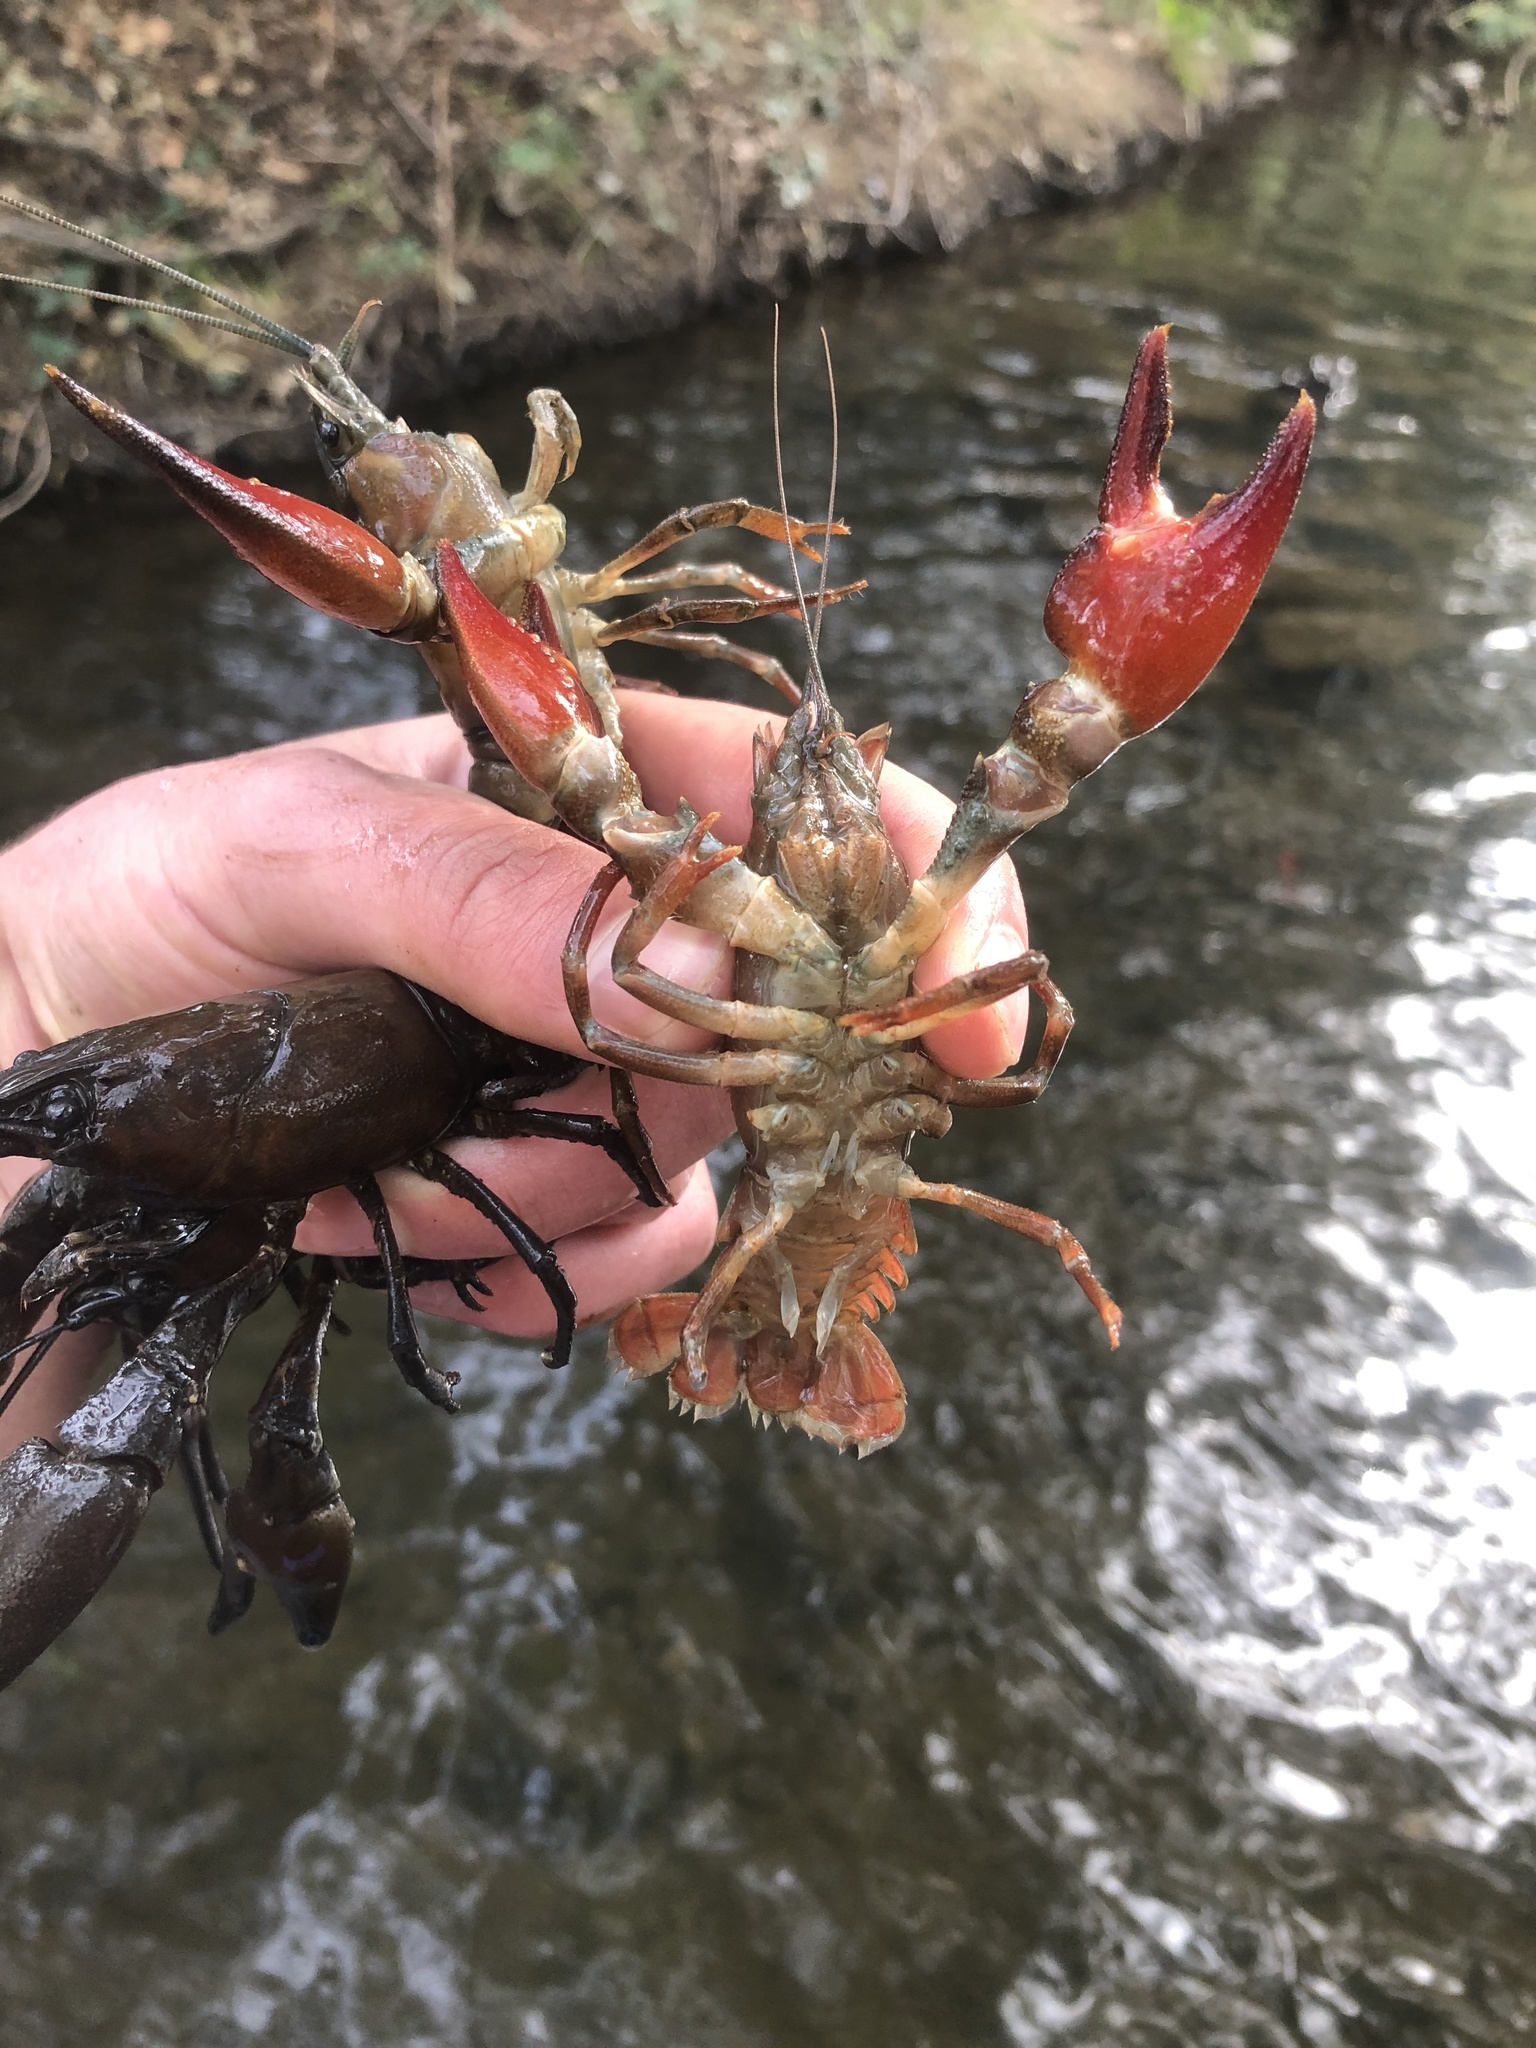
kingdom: Animalia
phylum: Arthropoda
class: Malacostraca
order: Decapoda
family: Astacidae
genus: Pacifastacus
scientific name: Pacifastacus leniusculus
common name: Signal crayfish
